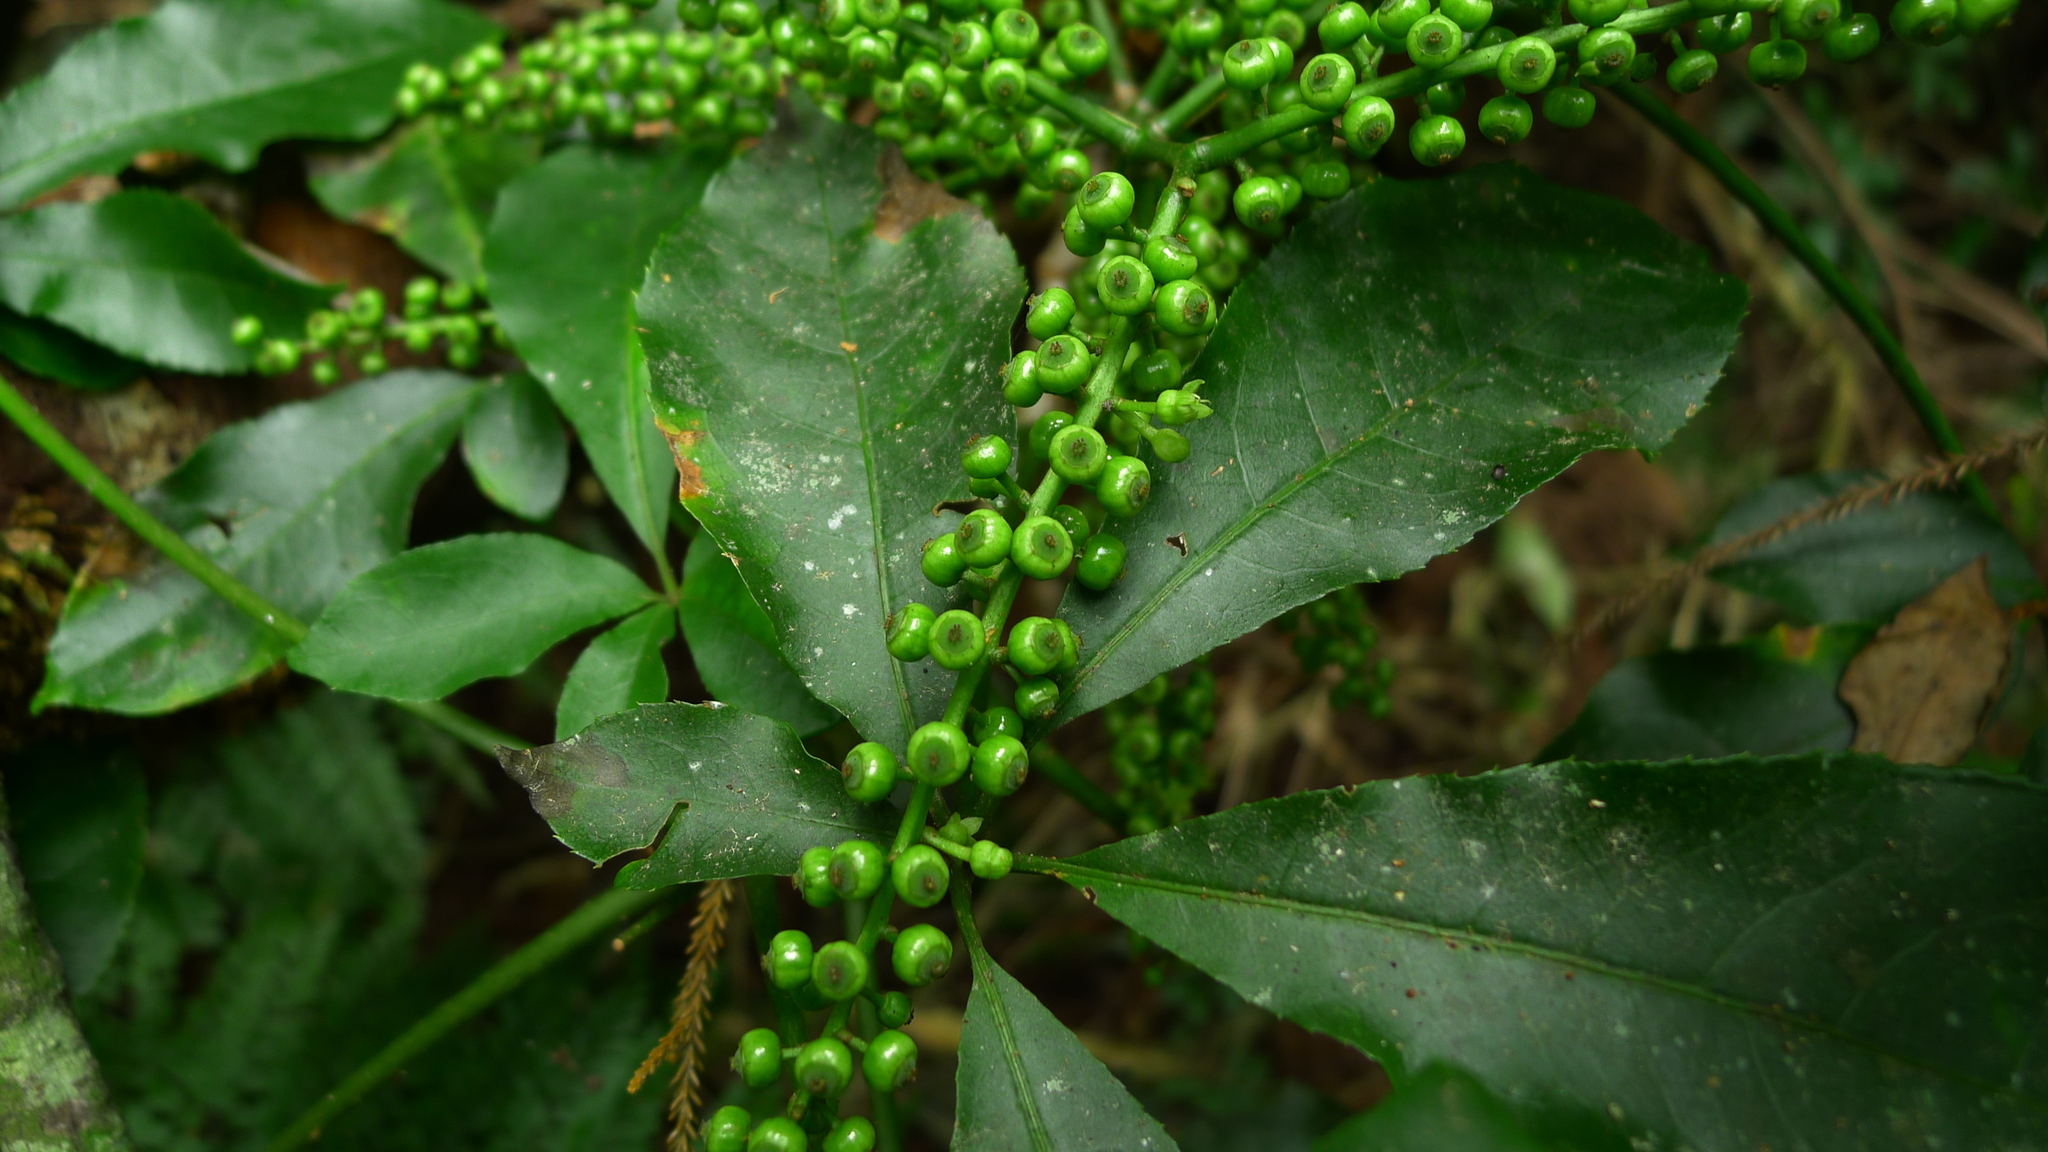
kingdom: Plantae
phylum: Tracheophyta
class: Magnoliopsida
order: Apiales
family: Araliaceae
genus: Schefflera
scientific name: Schefflera digitata
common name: Pate
